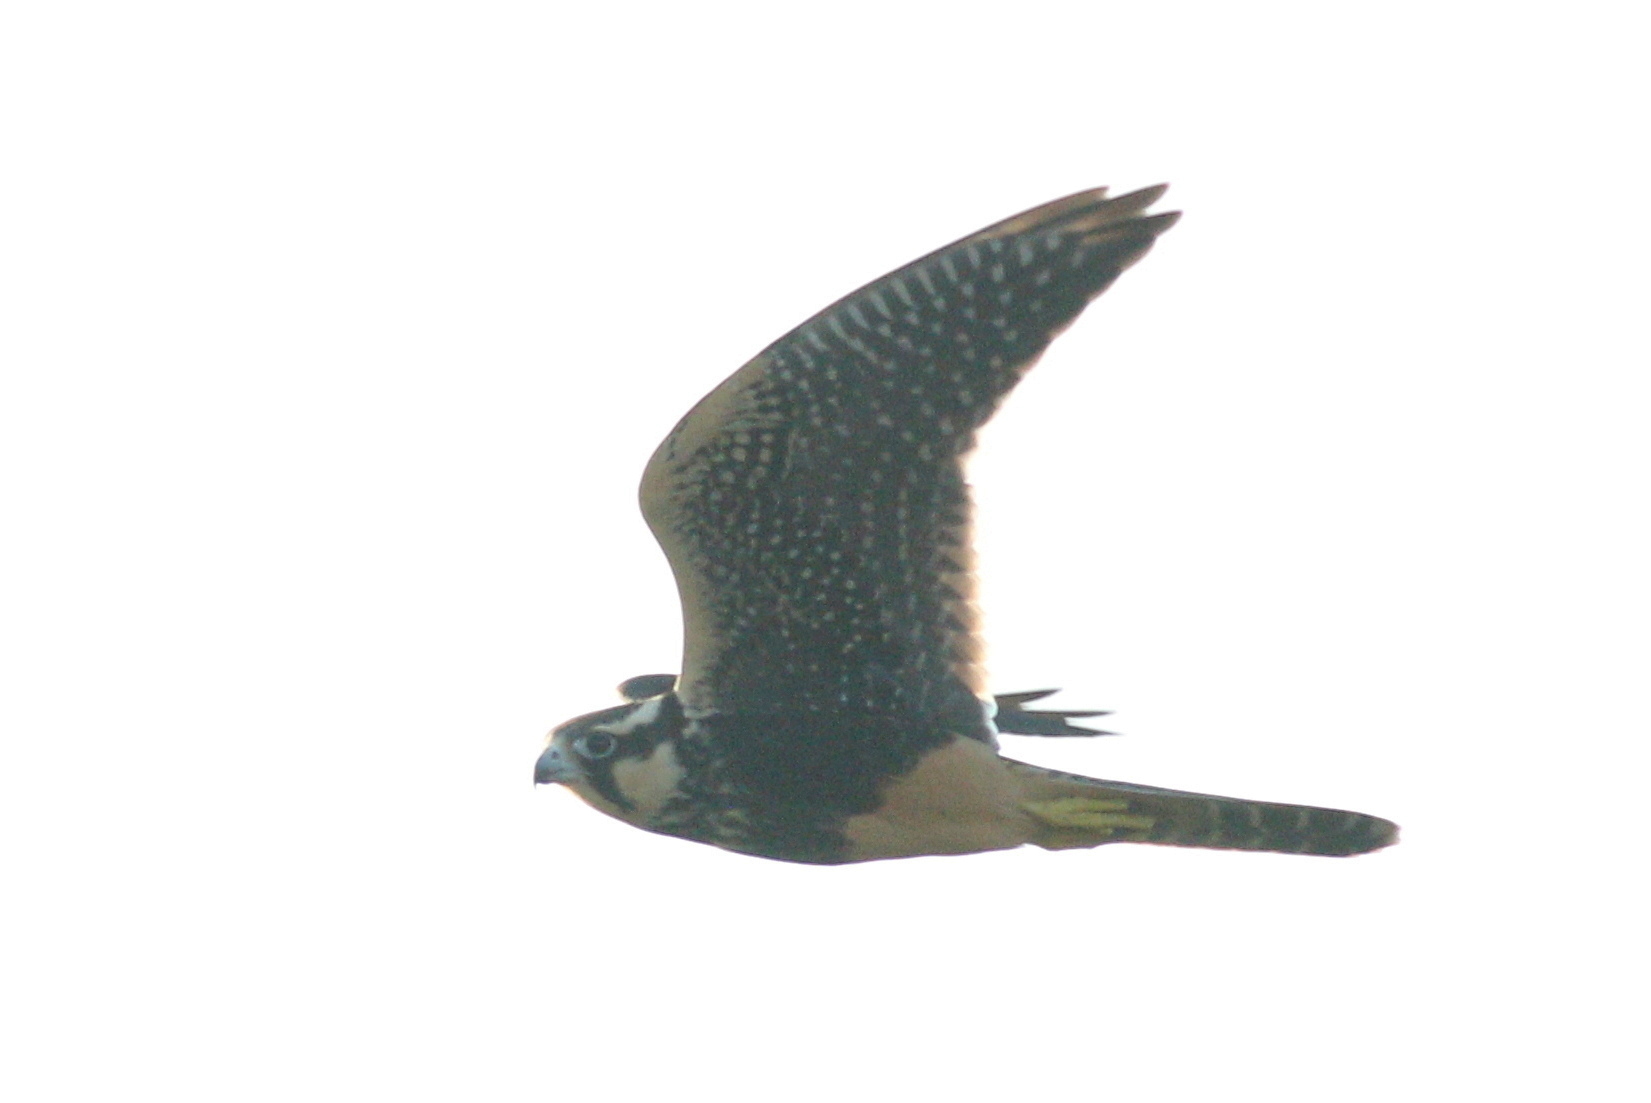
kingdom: Animalia
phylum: Chordata
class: Aves
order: Falconiformes
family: Falconidae
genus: Falco
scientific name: Falco femoralis
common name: Aplomado falcon
